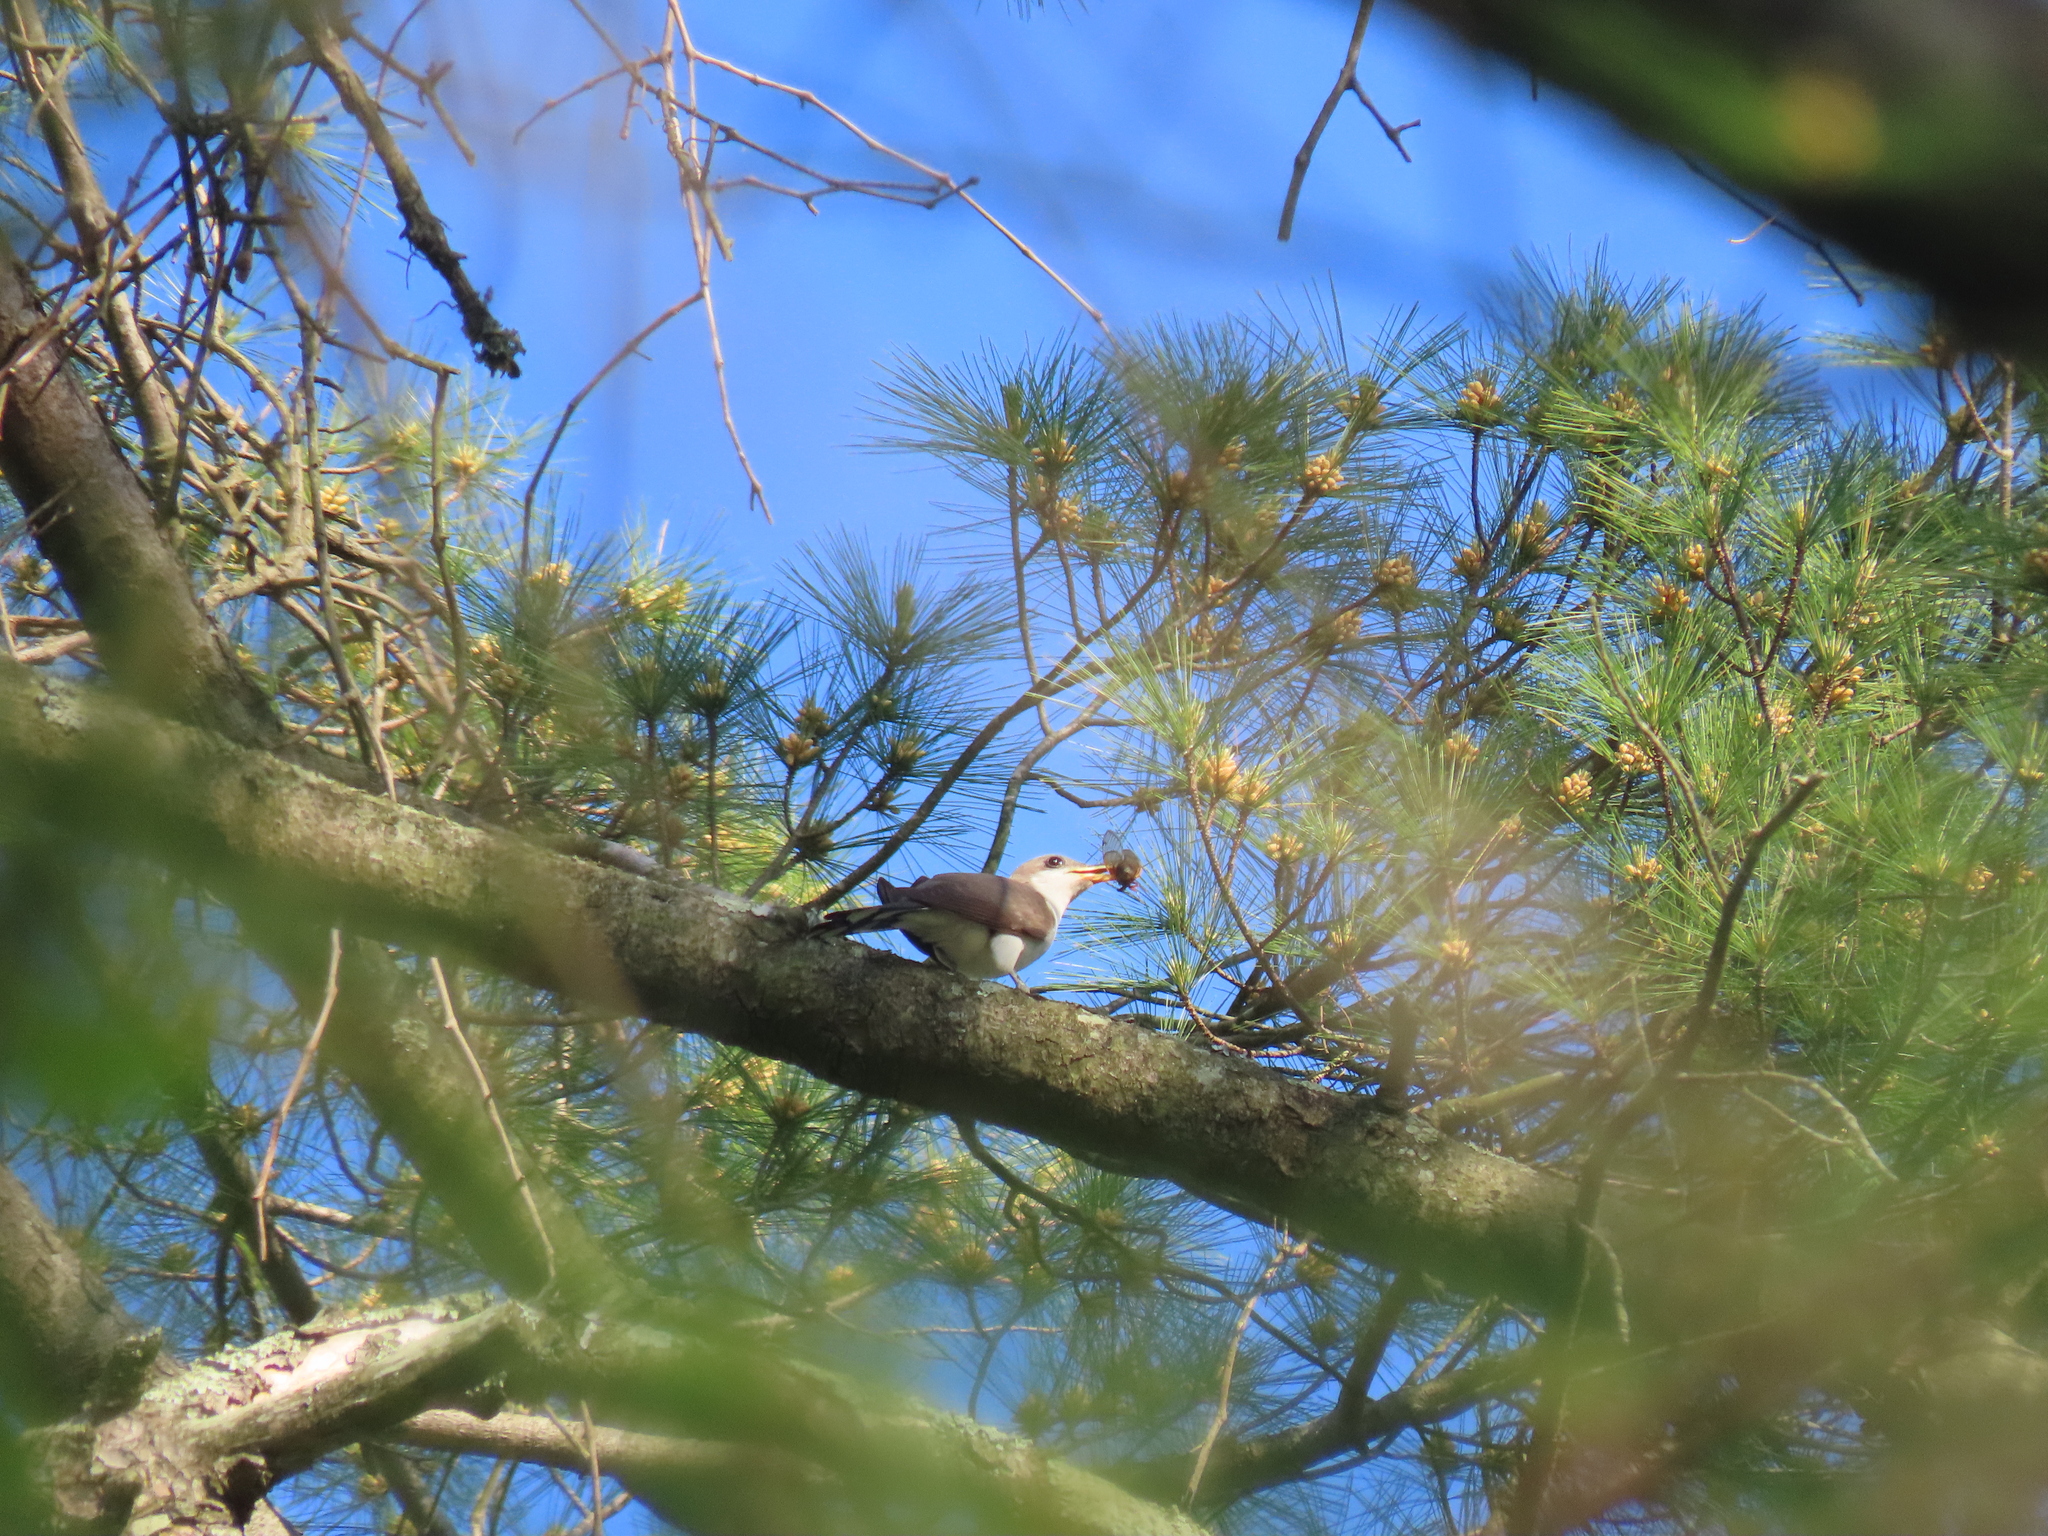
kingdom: Animalia
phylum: Chordata
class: Aves
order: Cuculiformes
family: Cuculidae
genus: Coccyzus
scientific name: Coccyzus americanus
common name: Yellow-billed cuckoo
